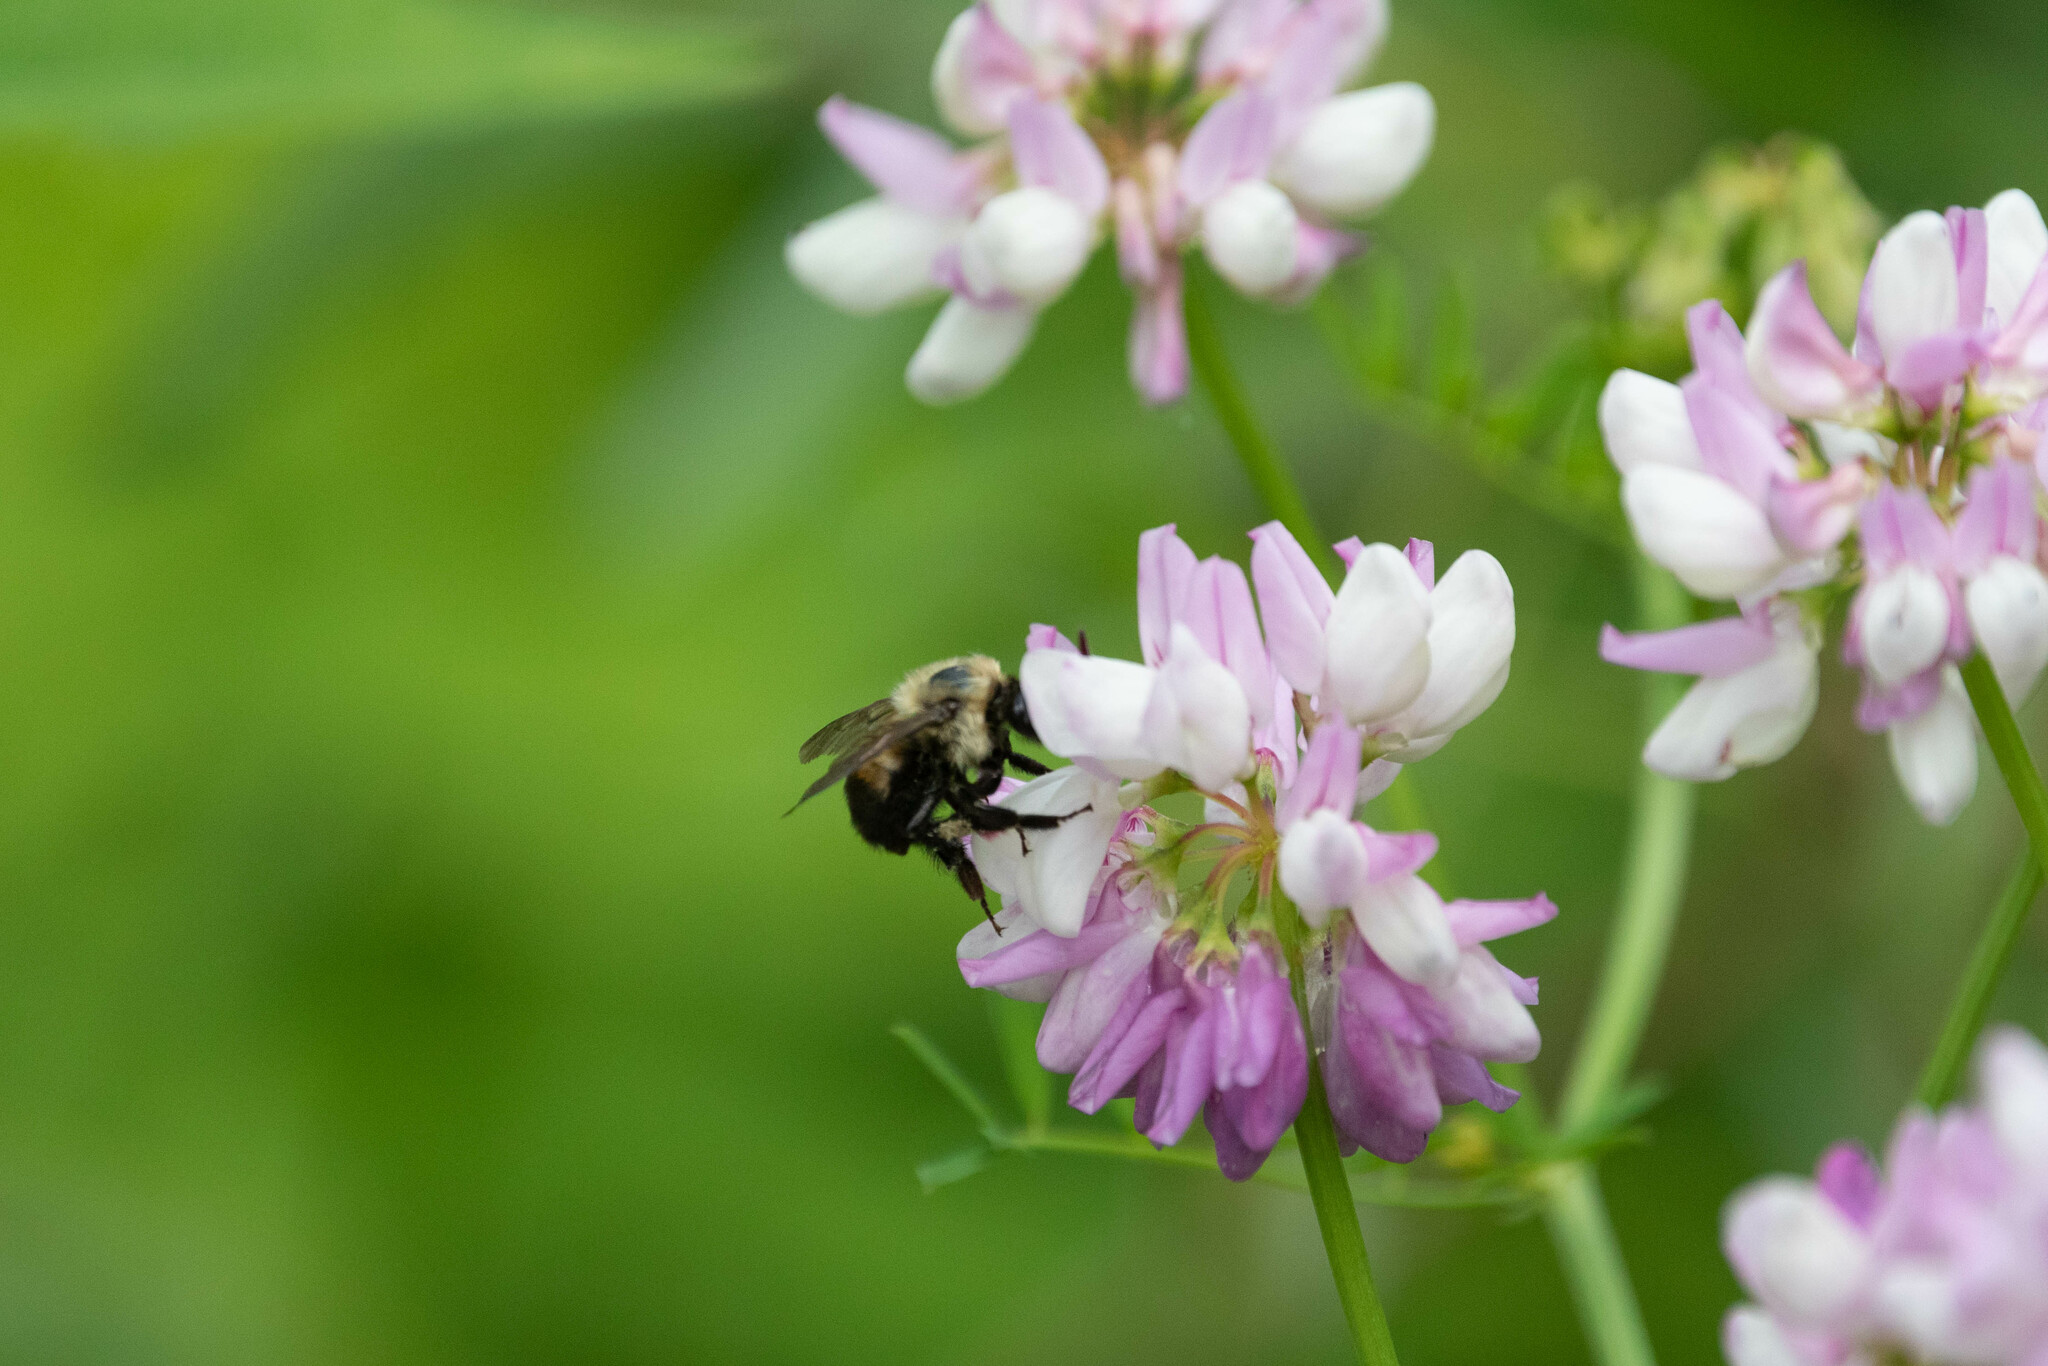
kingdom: Animalia
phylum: Arthropoda
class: Insecta
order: Hymenoptera
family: Apidae
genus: Bombus
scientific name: Bombus griseocollis
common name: Brown-belted bumble bee
